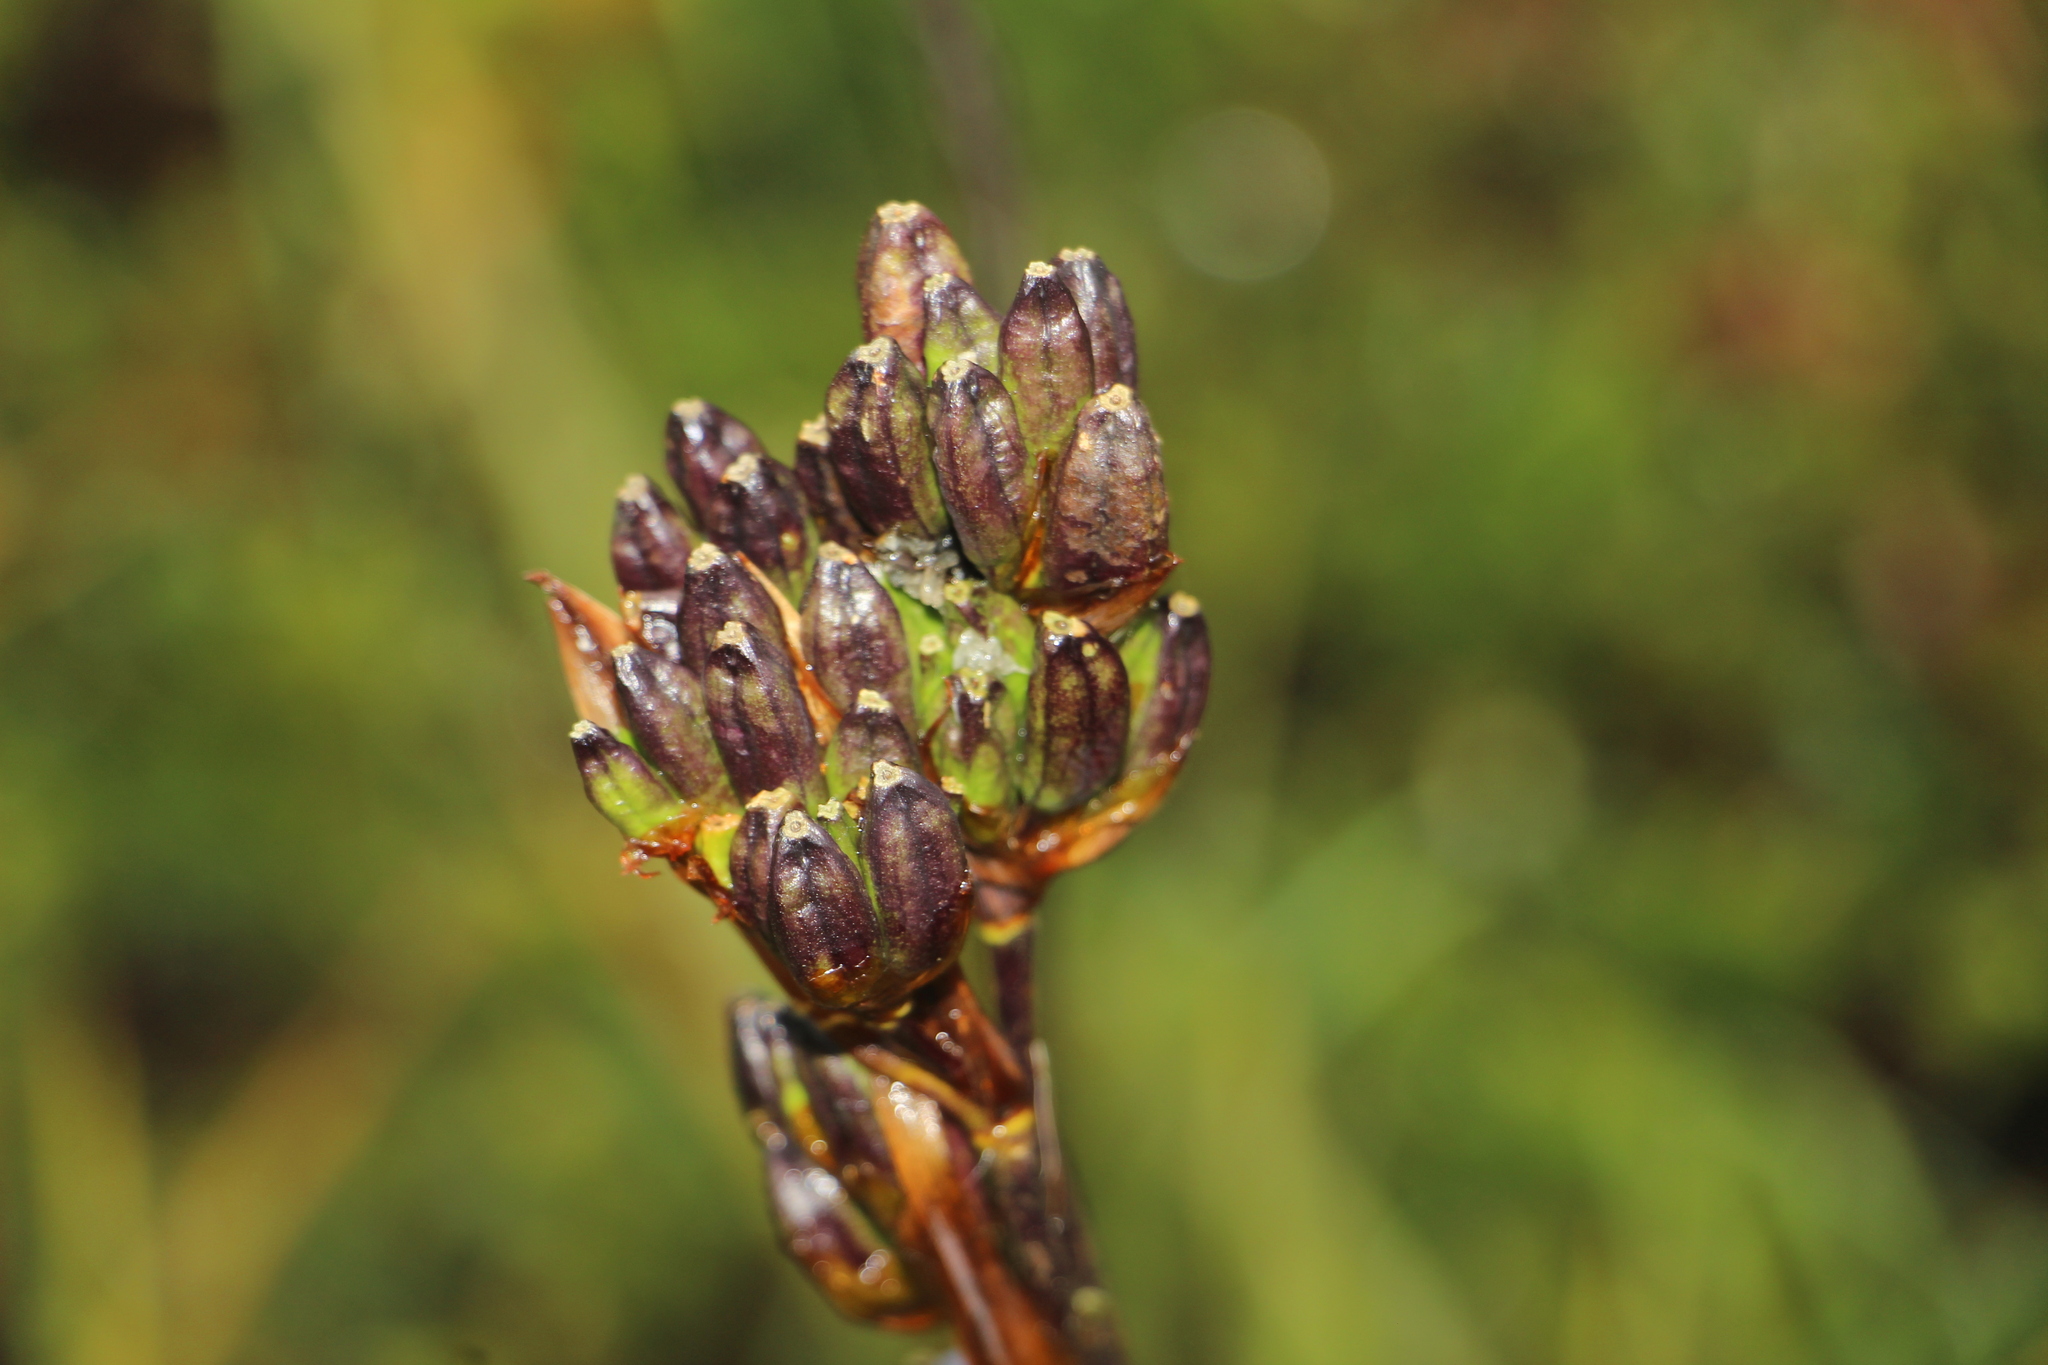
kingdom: Plantae
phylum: Tracheophyta
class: Liliopsida
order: Asparagales
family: Iridaceae
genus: Orthrosanthus
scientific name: Orthrosanthus chimboracensis
